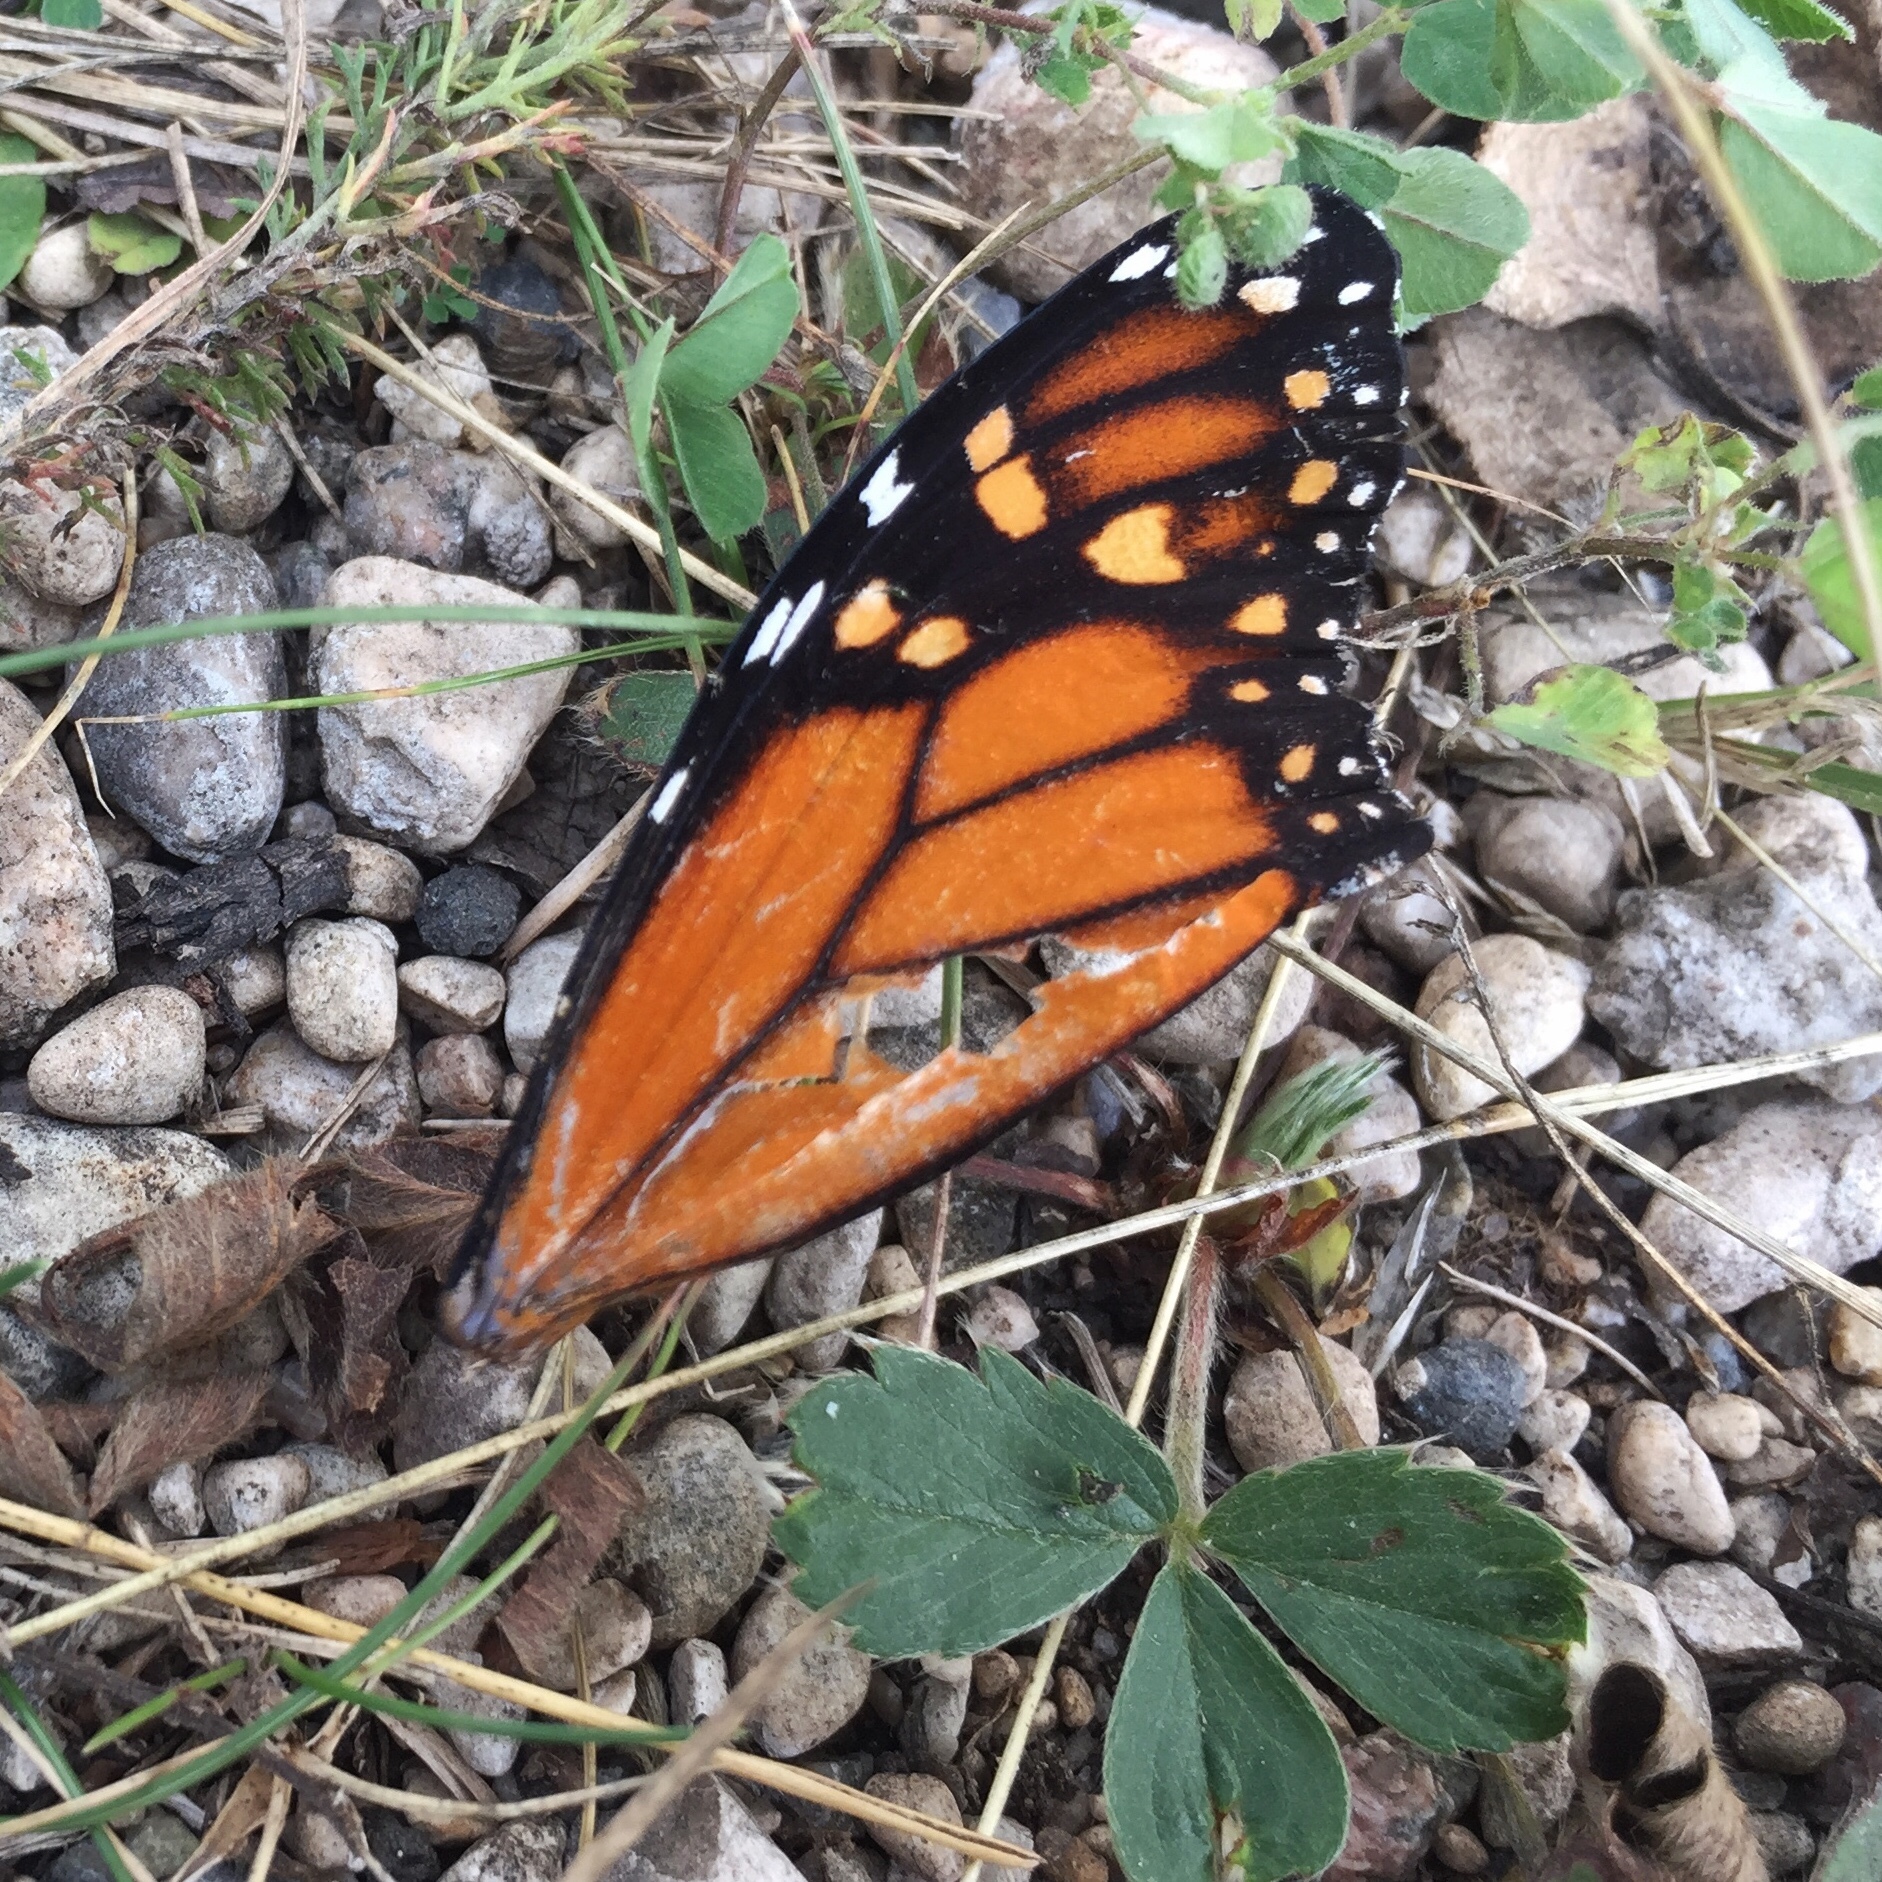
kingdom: Animalia
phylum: Arthropoda
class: Insecta
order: Lepidoptera
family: Nymphalidae
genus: Danaus
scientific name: Danaus plexippus
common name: Monarch
